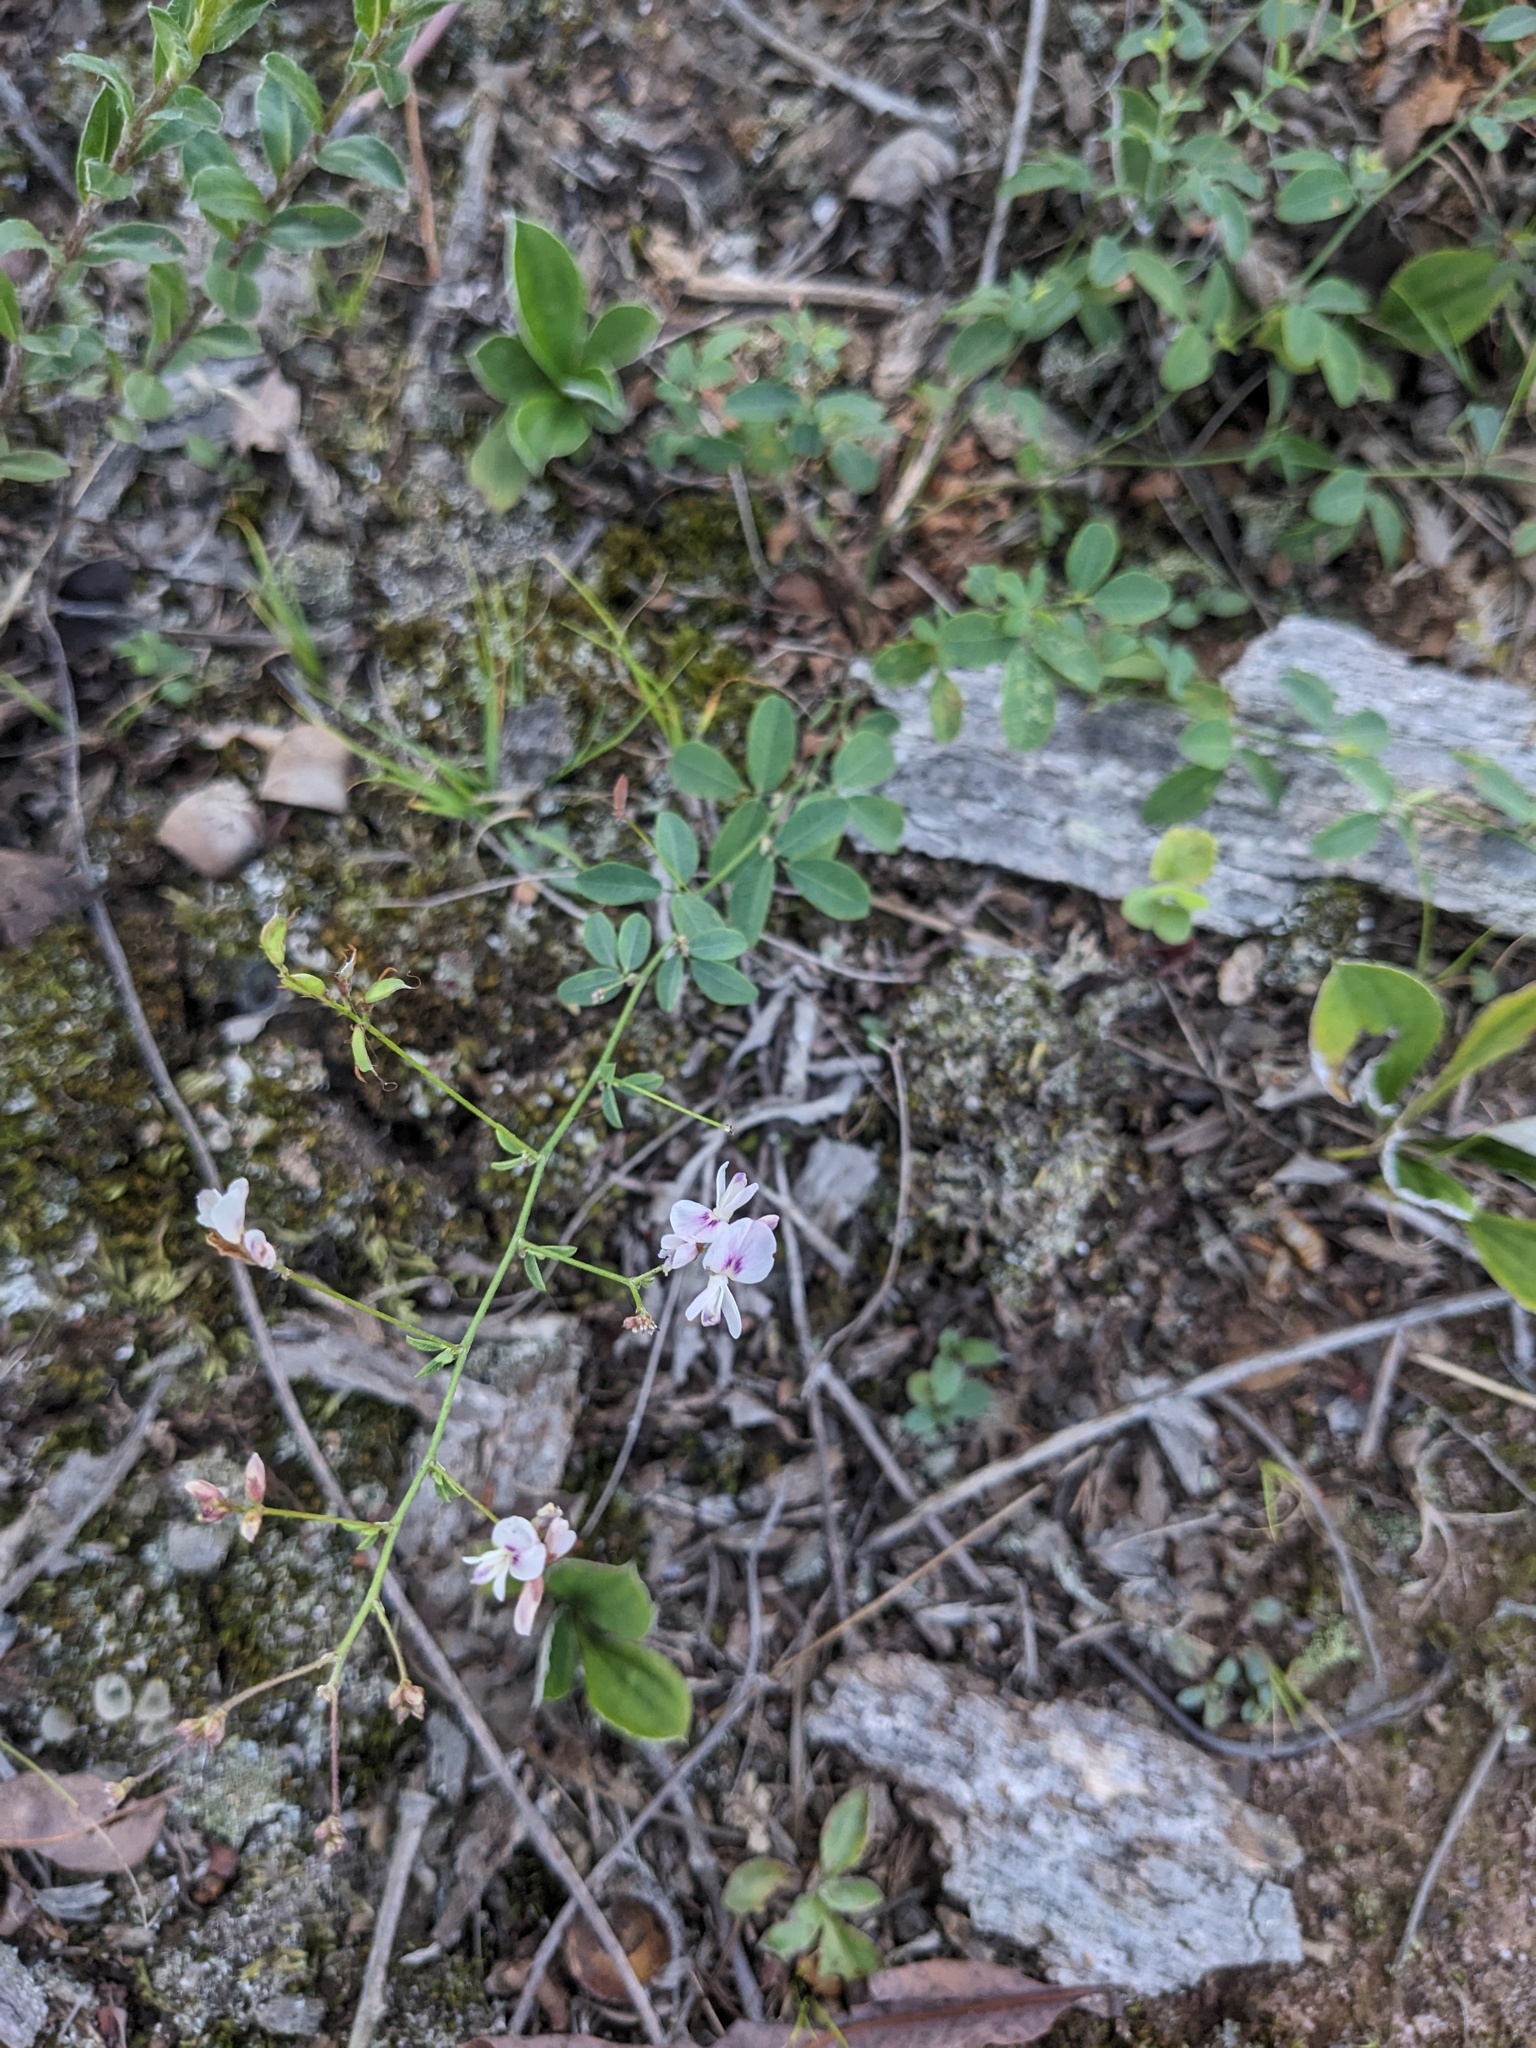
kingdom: Plantae
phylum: Tracheophyta
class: Magnoliopsida
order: Fabales
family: Fabaceae
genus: Lespedeza
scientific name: Lespedeza procumbens
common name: Downy trailing bush-clover
